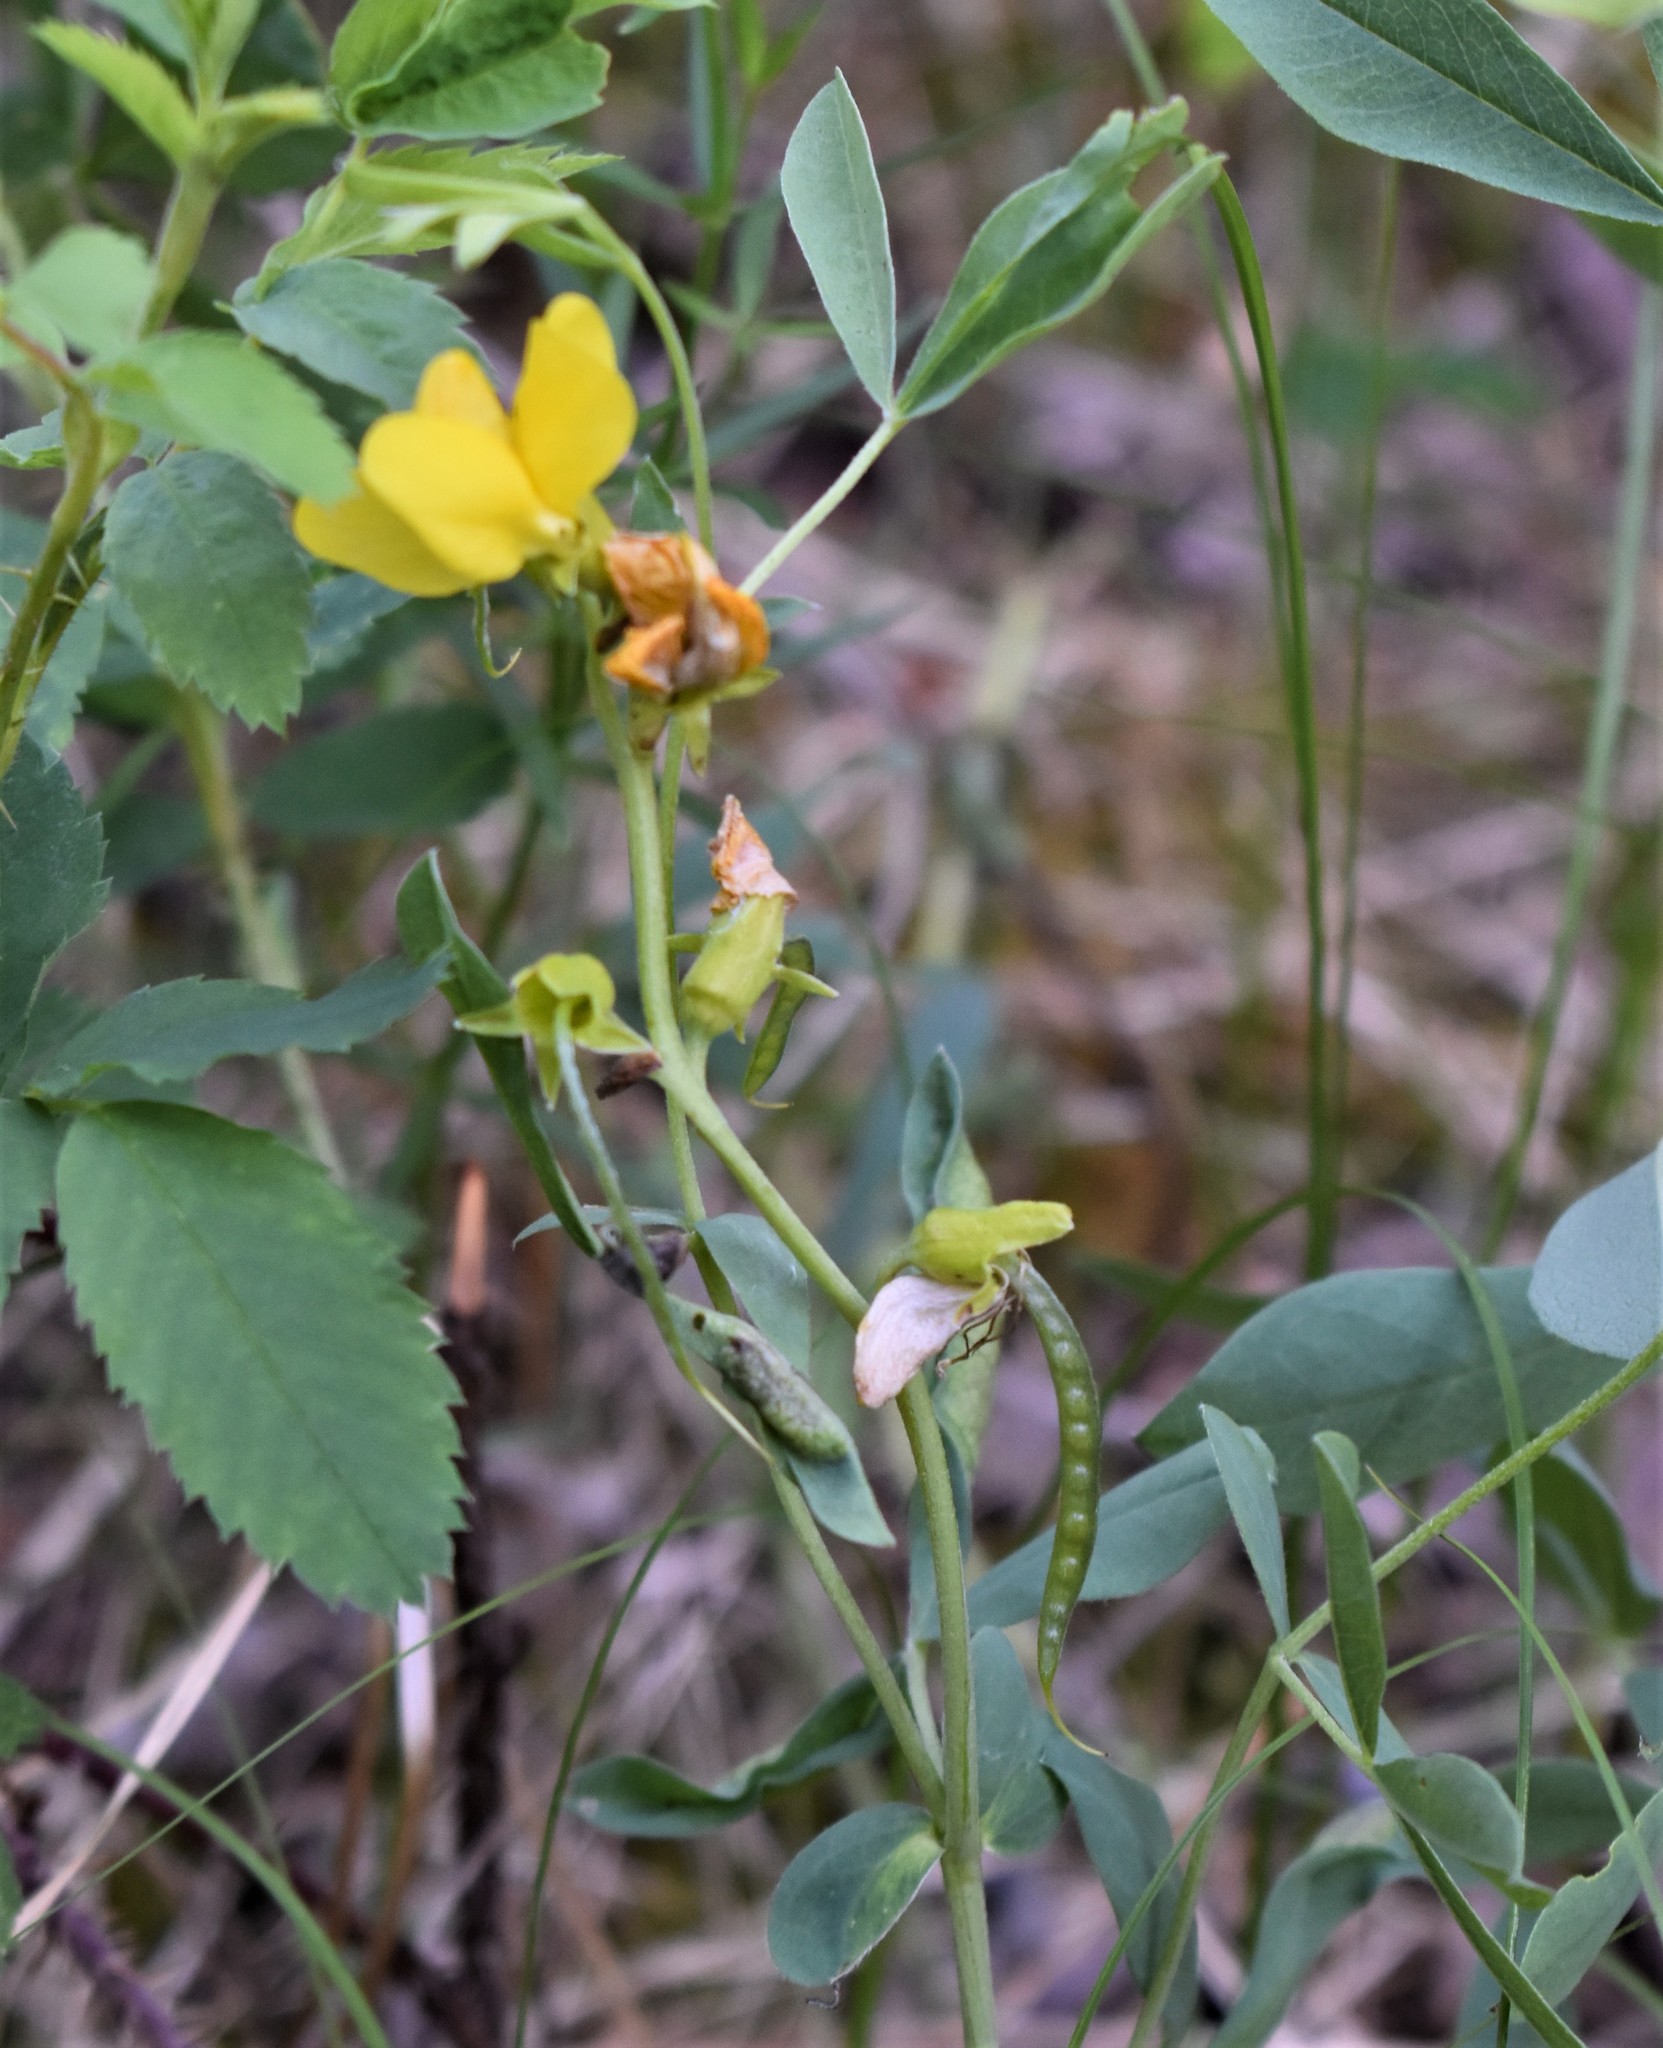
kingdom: Plantae
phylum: Tracheophyta
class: Magnoliopsida
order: Fabales
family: Fabaceae
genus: Thermopsis
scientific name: Thermopsis rhombifolia
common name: Circle-pod-pea
